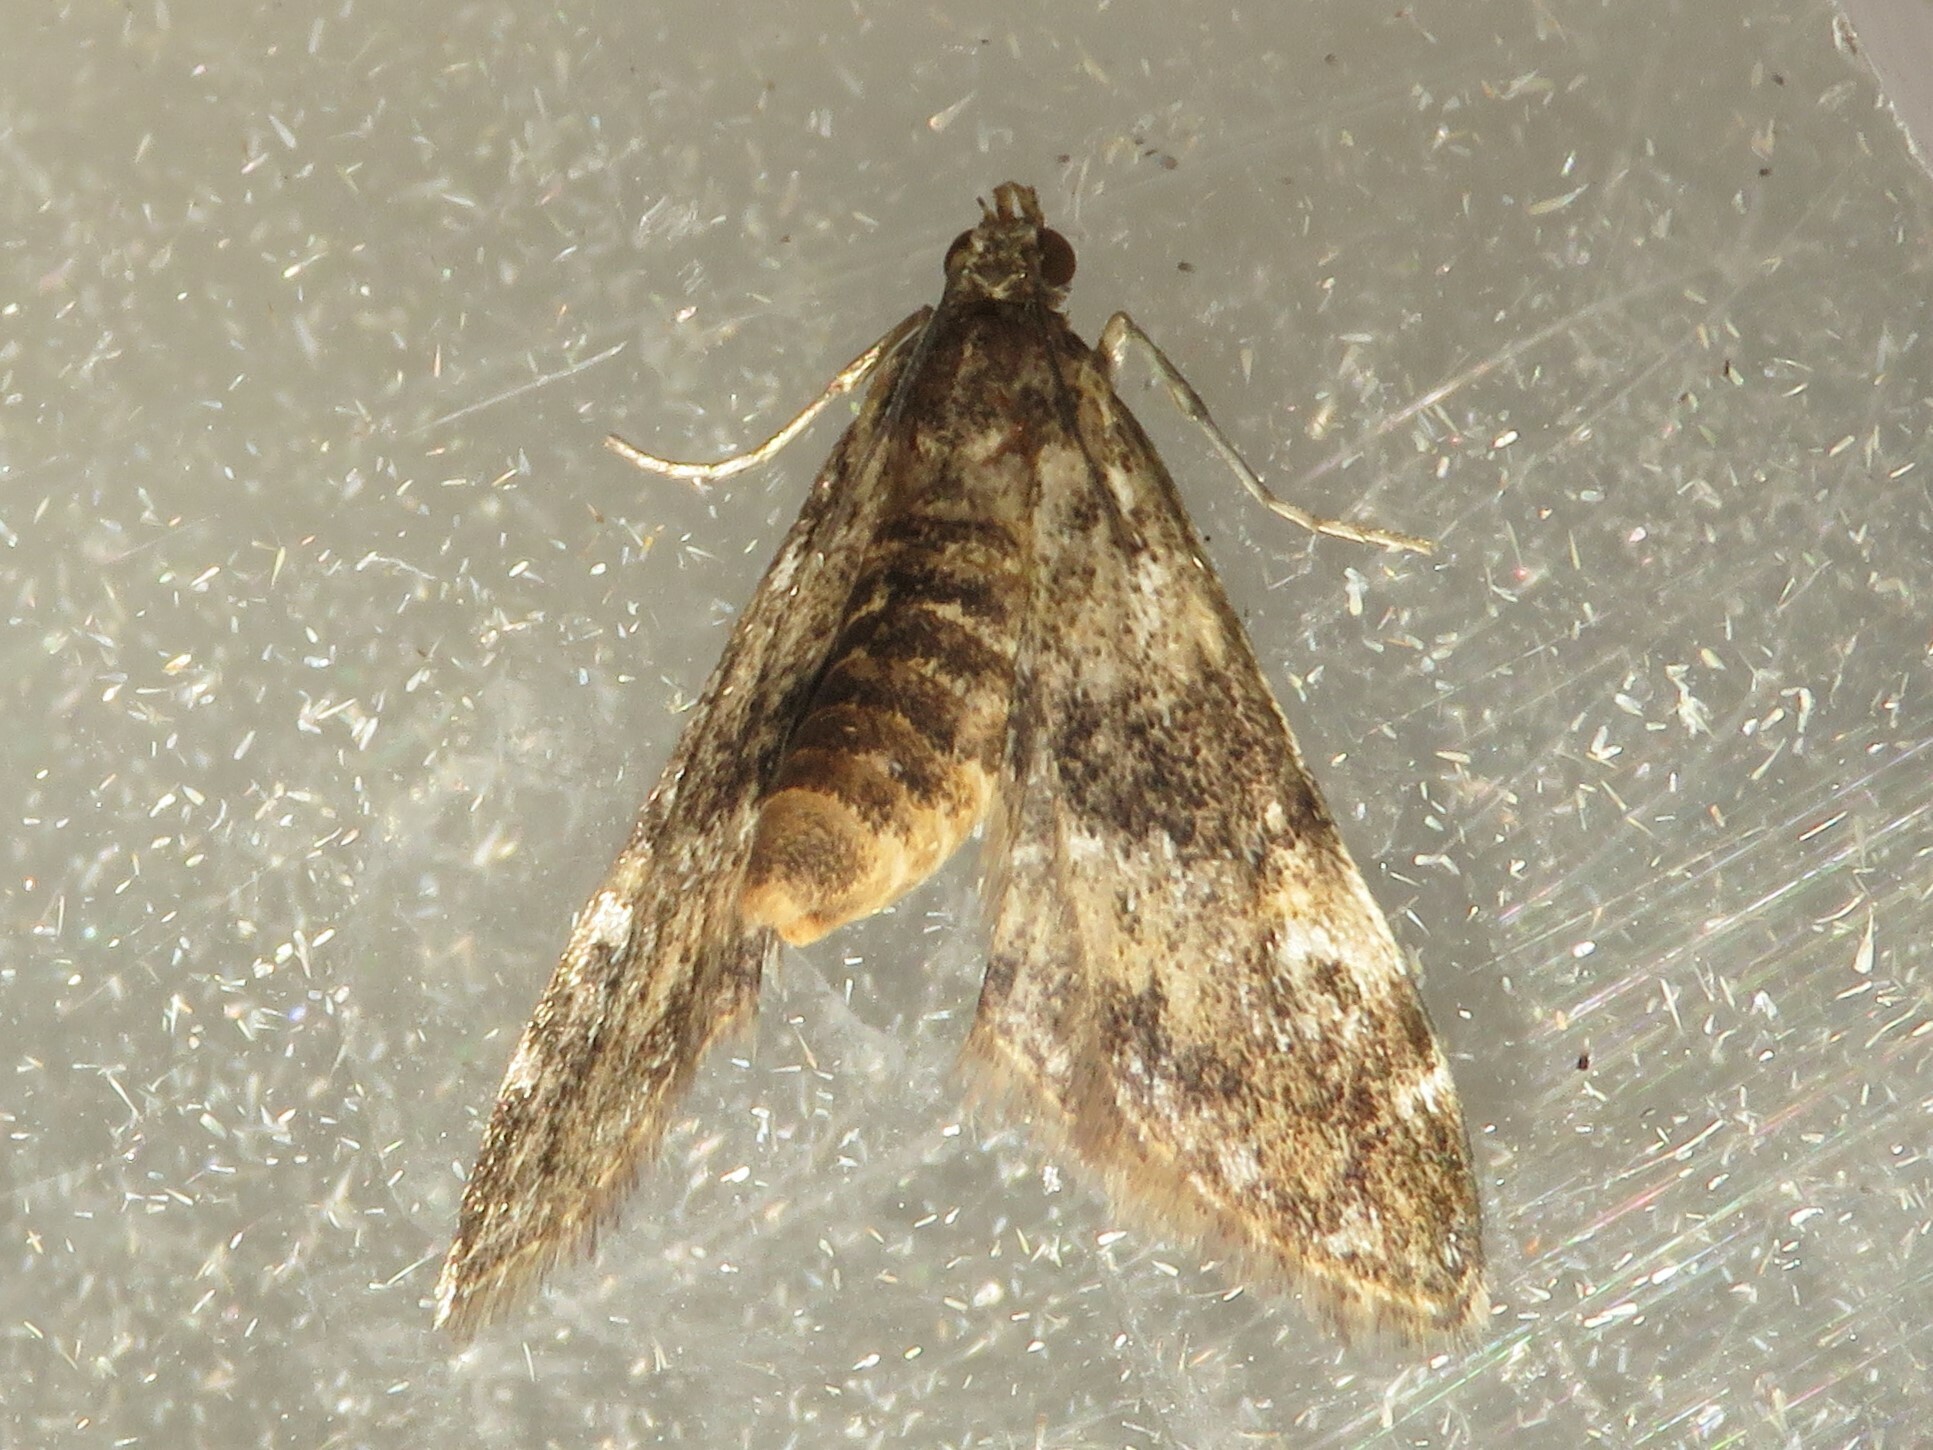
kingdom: Animalia
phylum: Arthropoda
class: Insecta
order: Lepidoptera
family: Crambidae
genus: Elophila
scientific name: Elophila obliteralis
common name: Waterlily leafcutter moth
